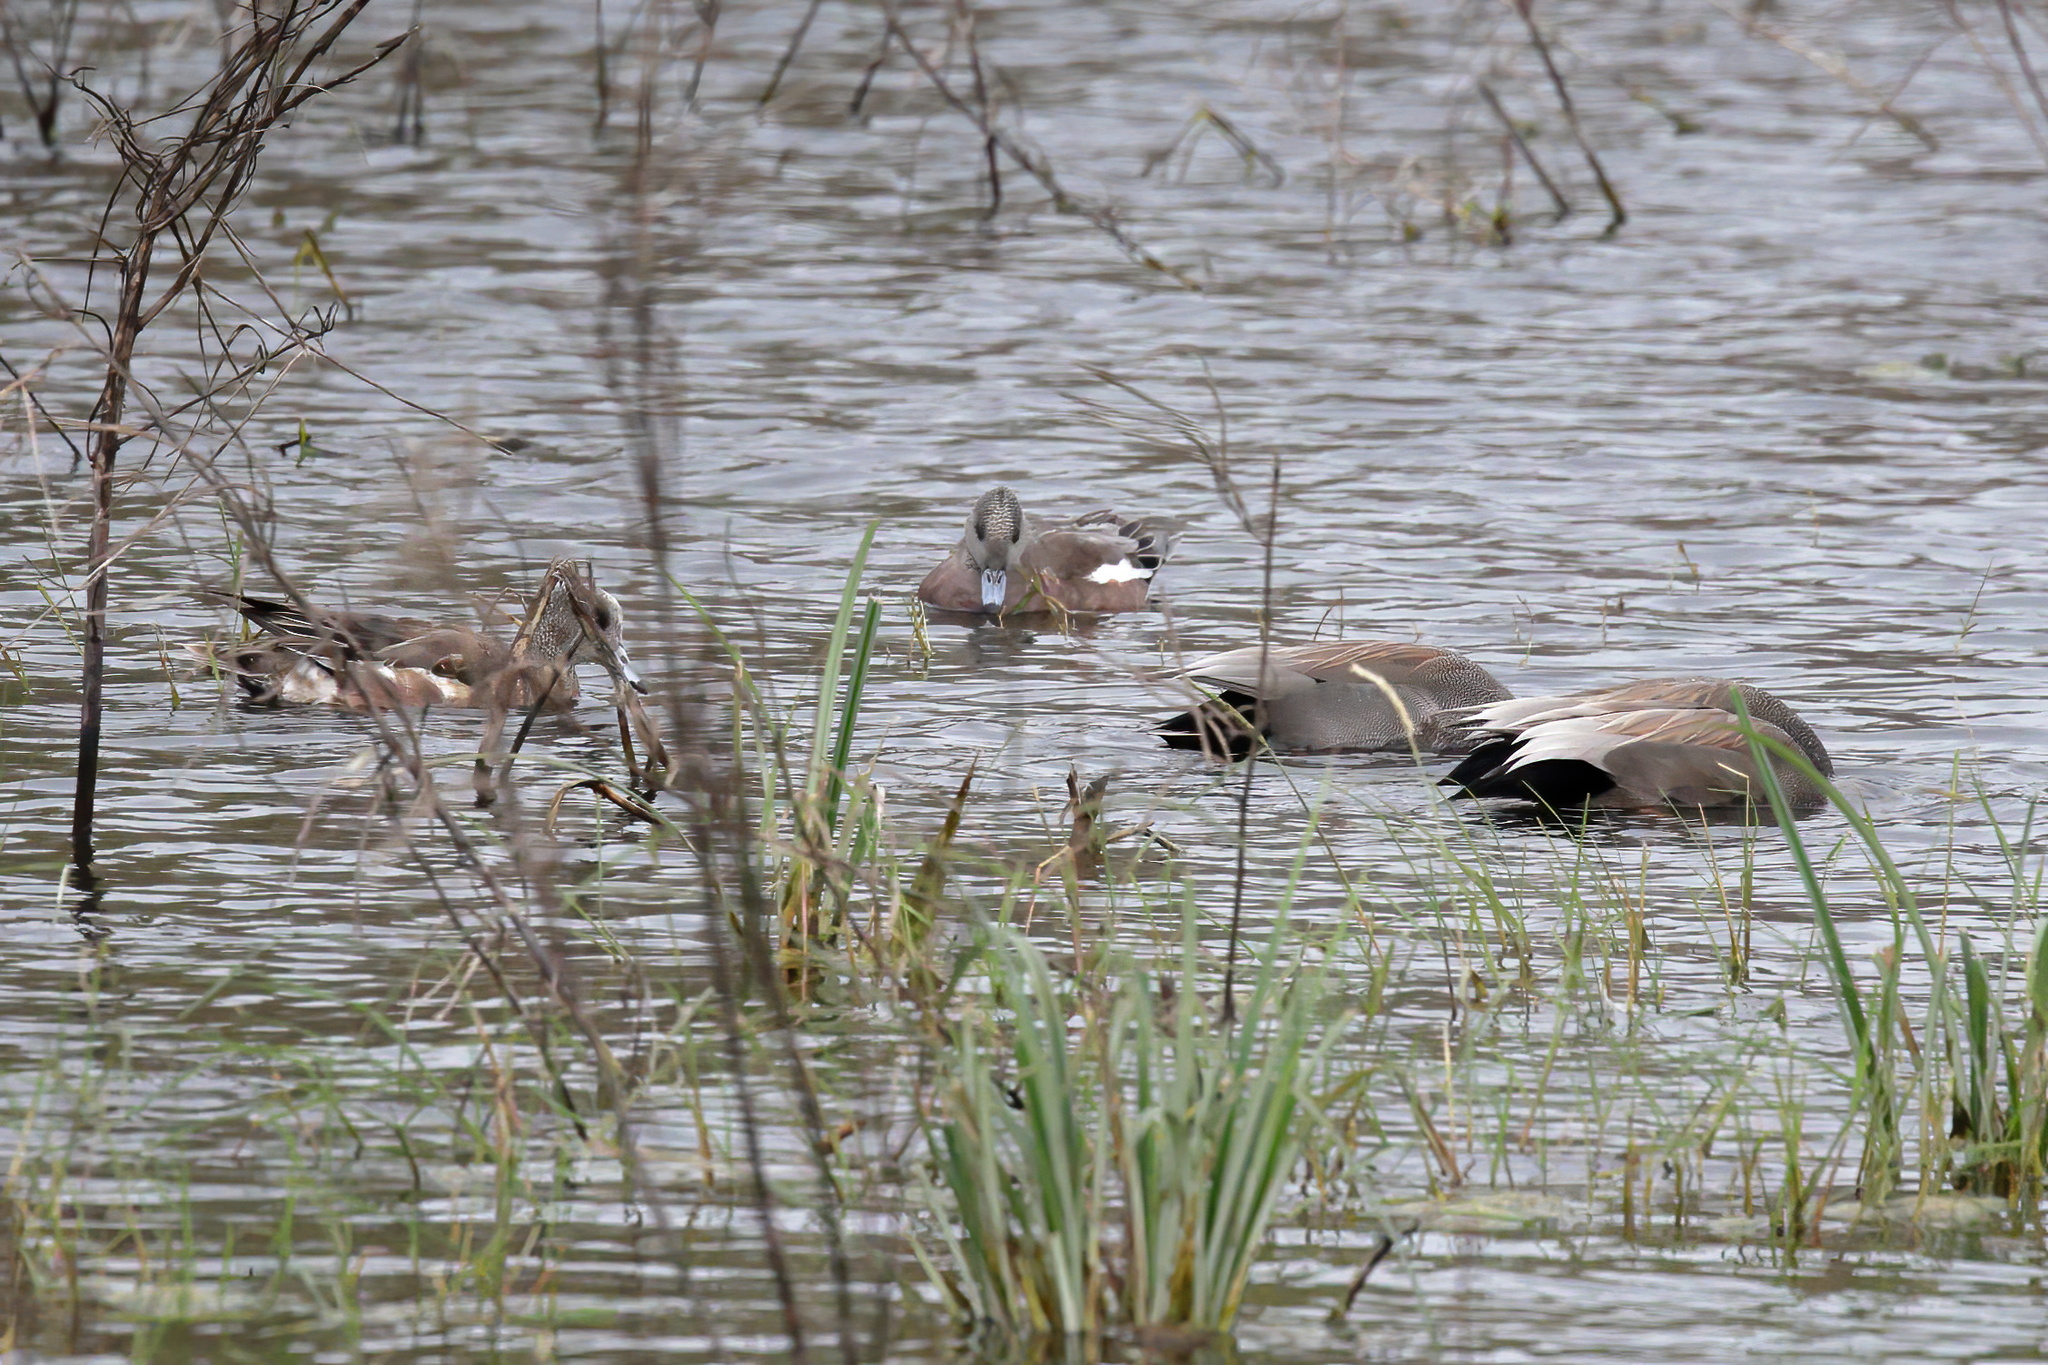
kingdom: Animalia
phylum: Chordata
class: Aves
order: Anseriformes
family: Anatidae
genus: Mareca
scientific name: Mareca americana
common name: American wigeon
